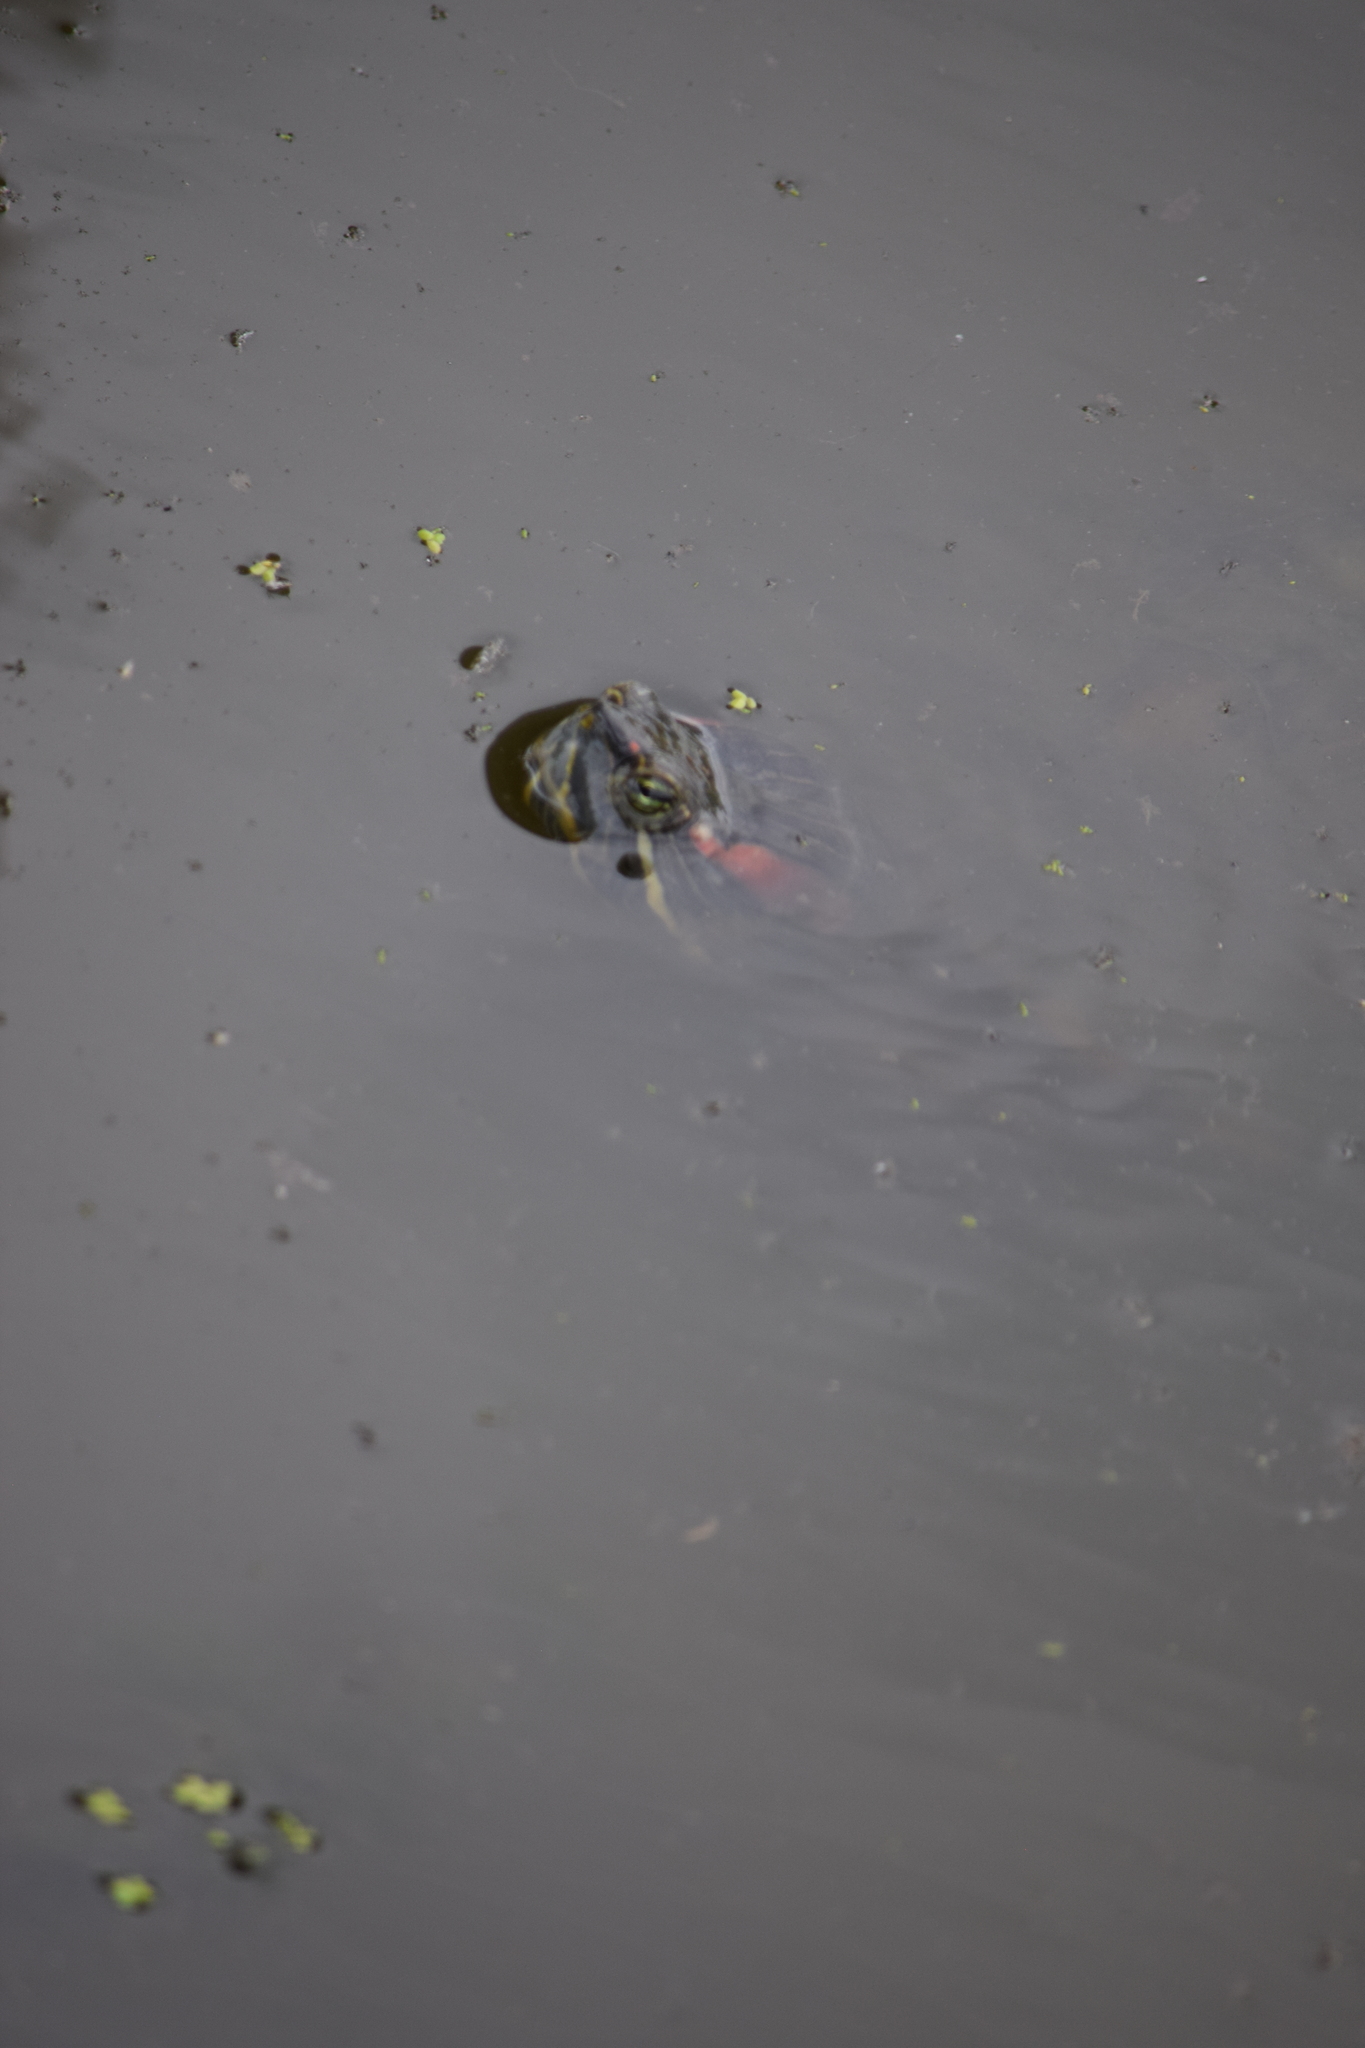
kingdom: Animalia
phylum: Chordata
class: Testudines
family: Emydidae
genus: Trachemys
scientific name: Trachemys scripta
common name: Slider
